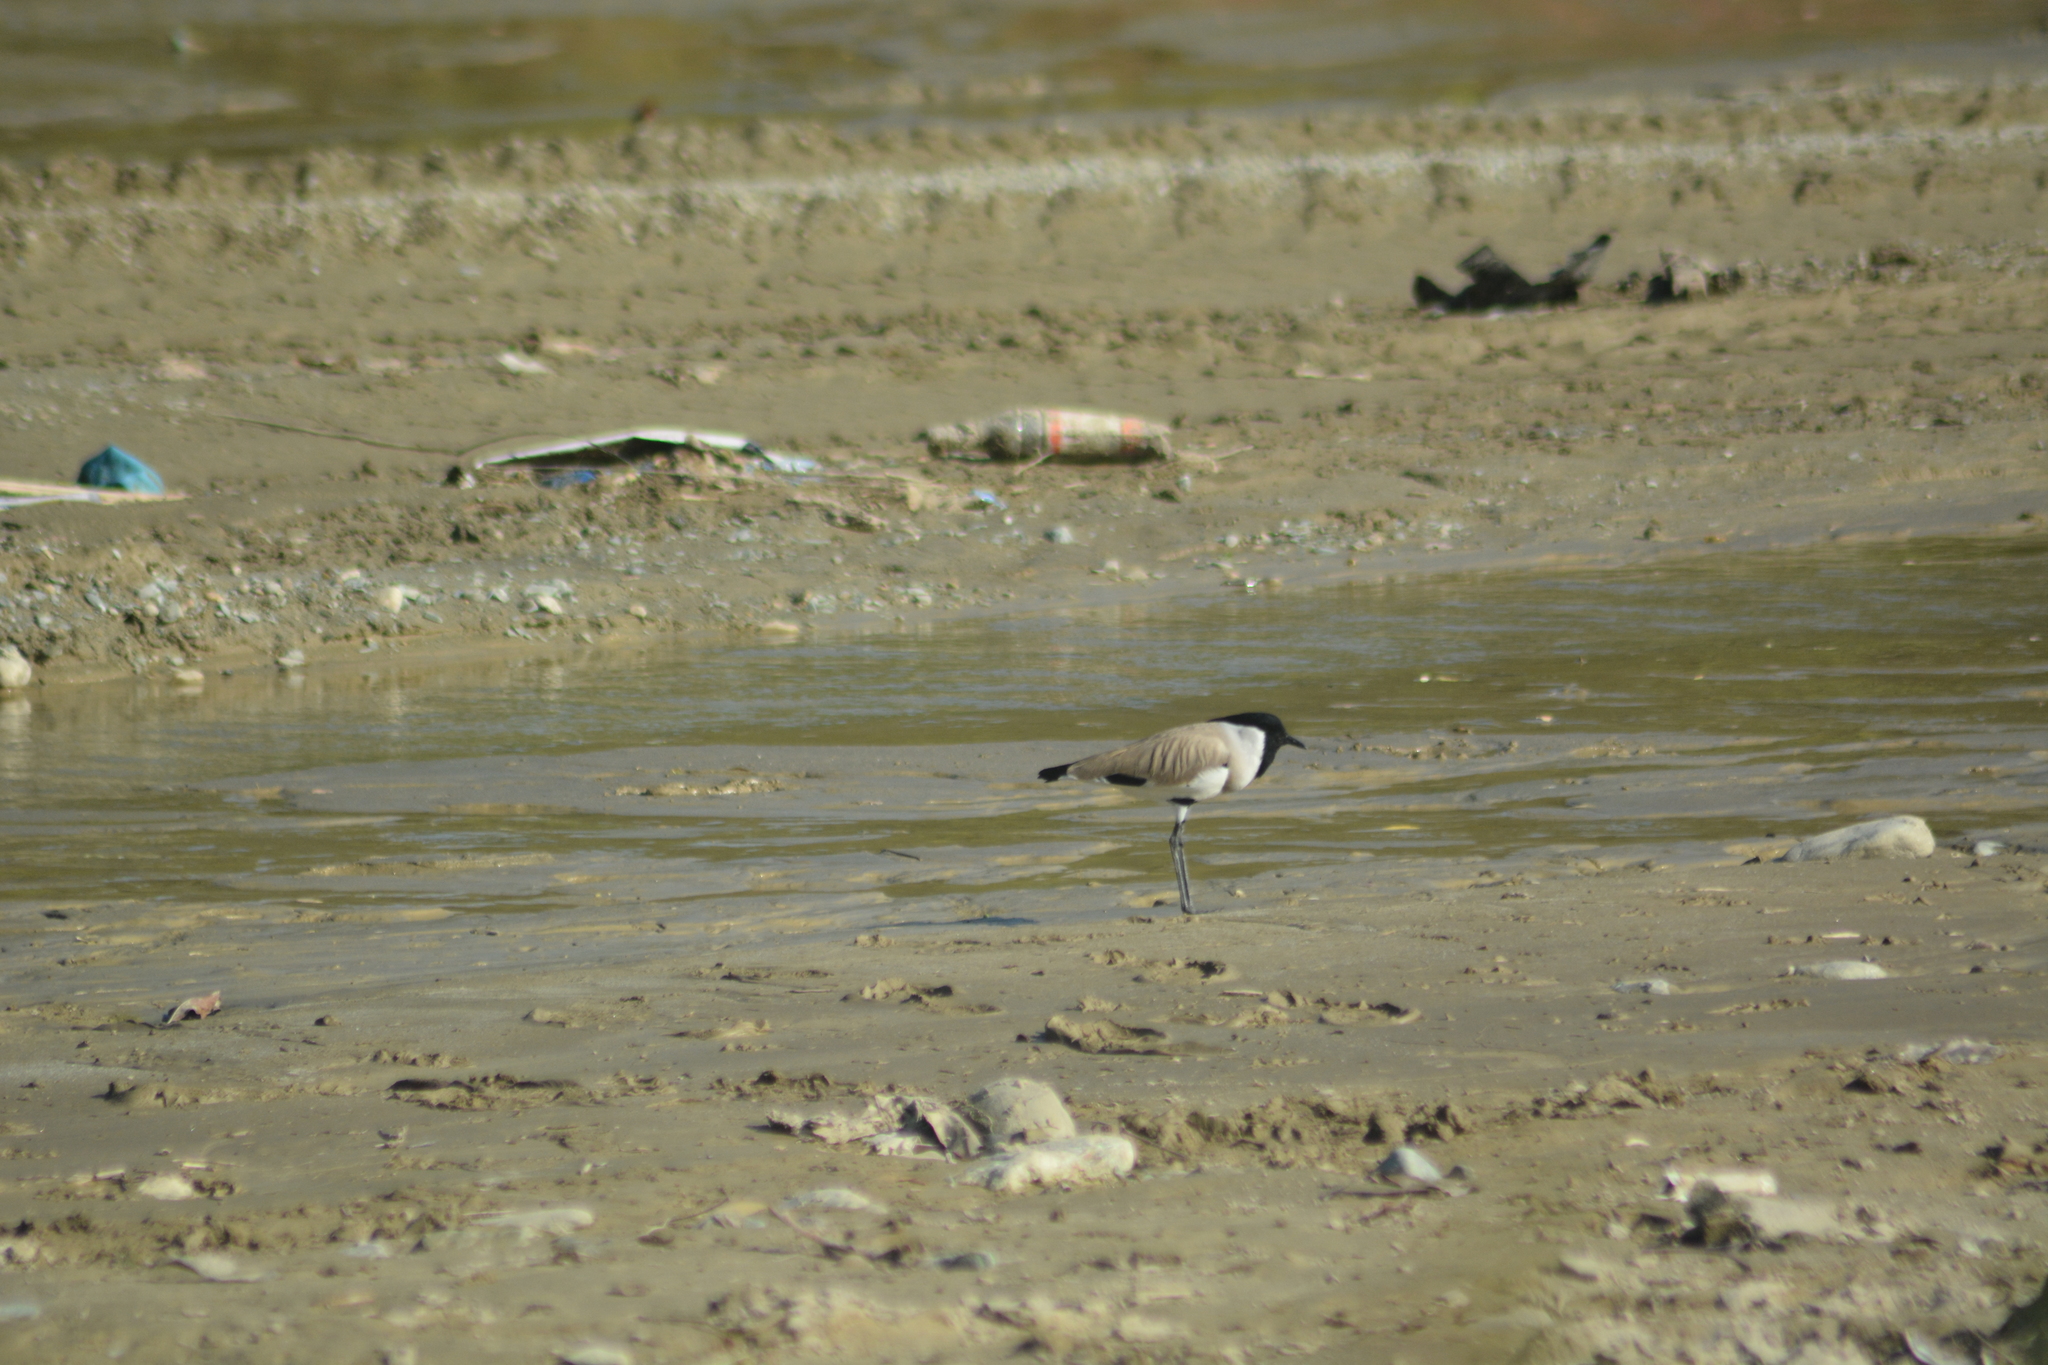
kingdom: Animalia
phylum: Chordata
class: Aves
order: Charadriiformes
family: Charadriidae
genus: Vanellus
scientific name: Vanellus duvaucelii
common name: River lapwing
